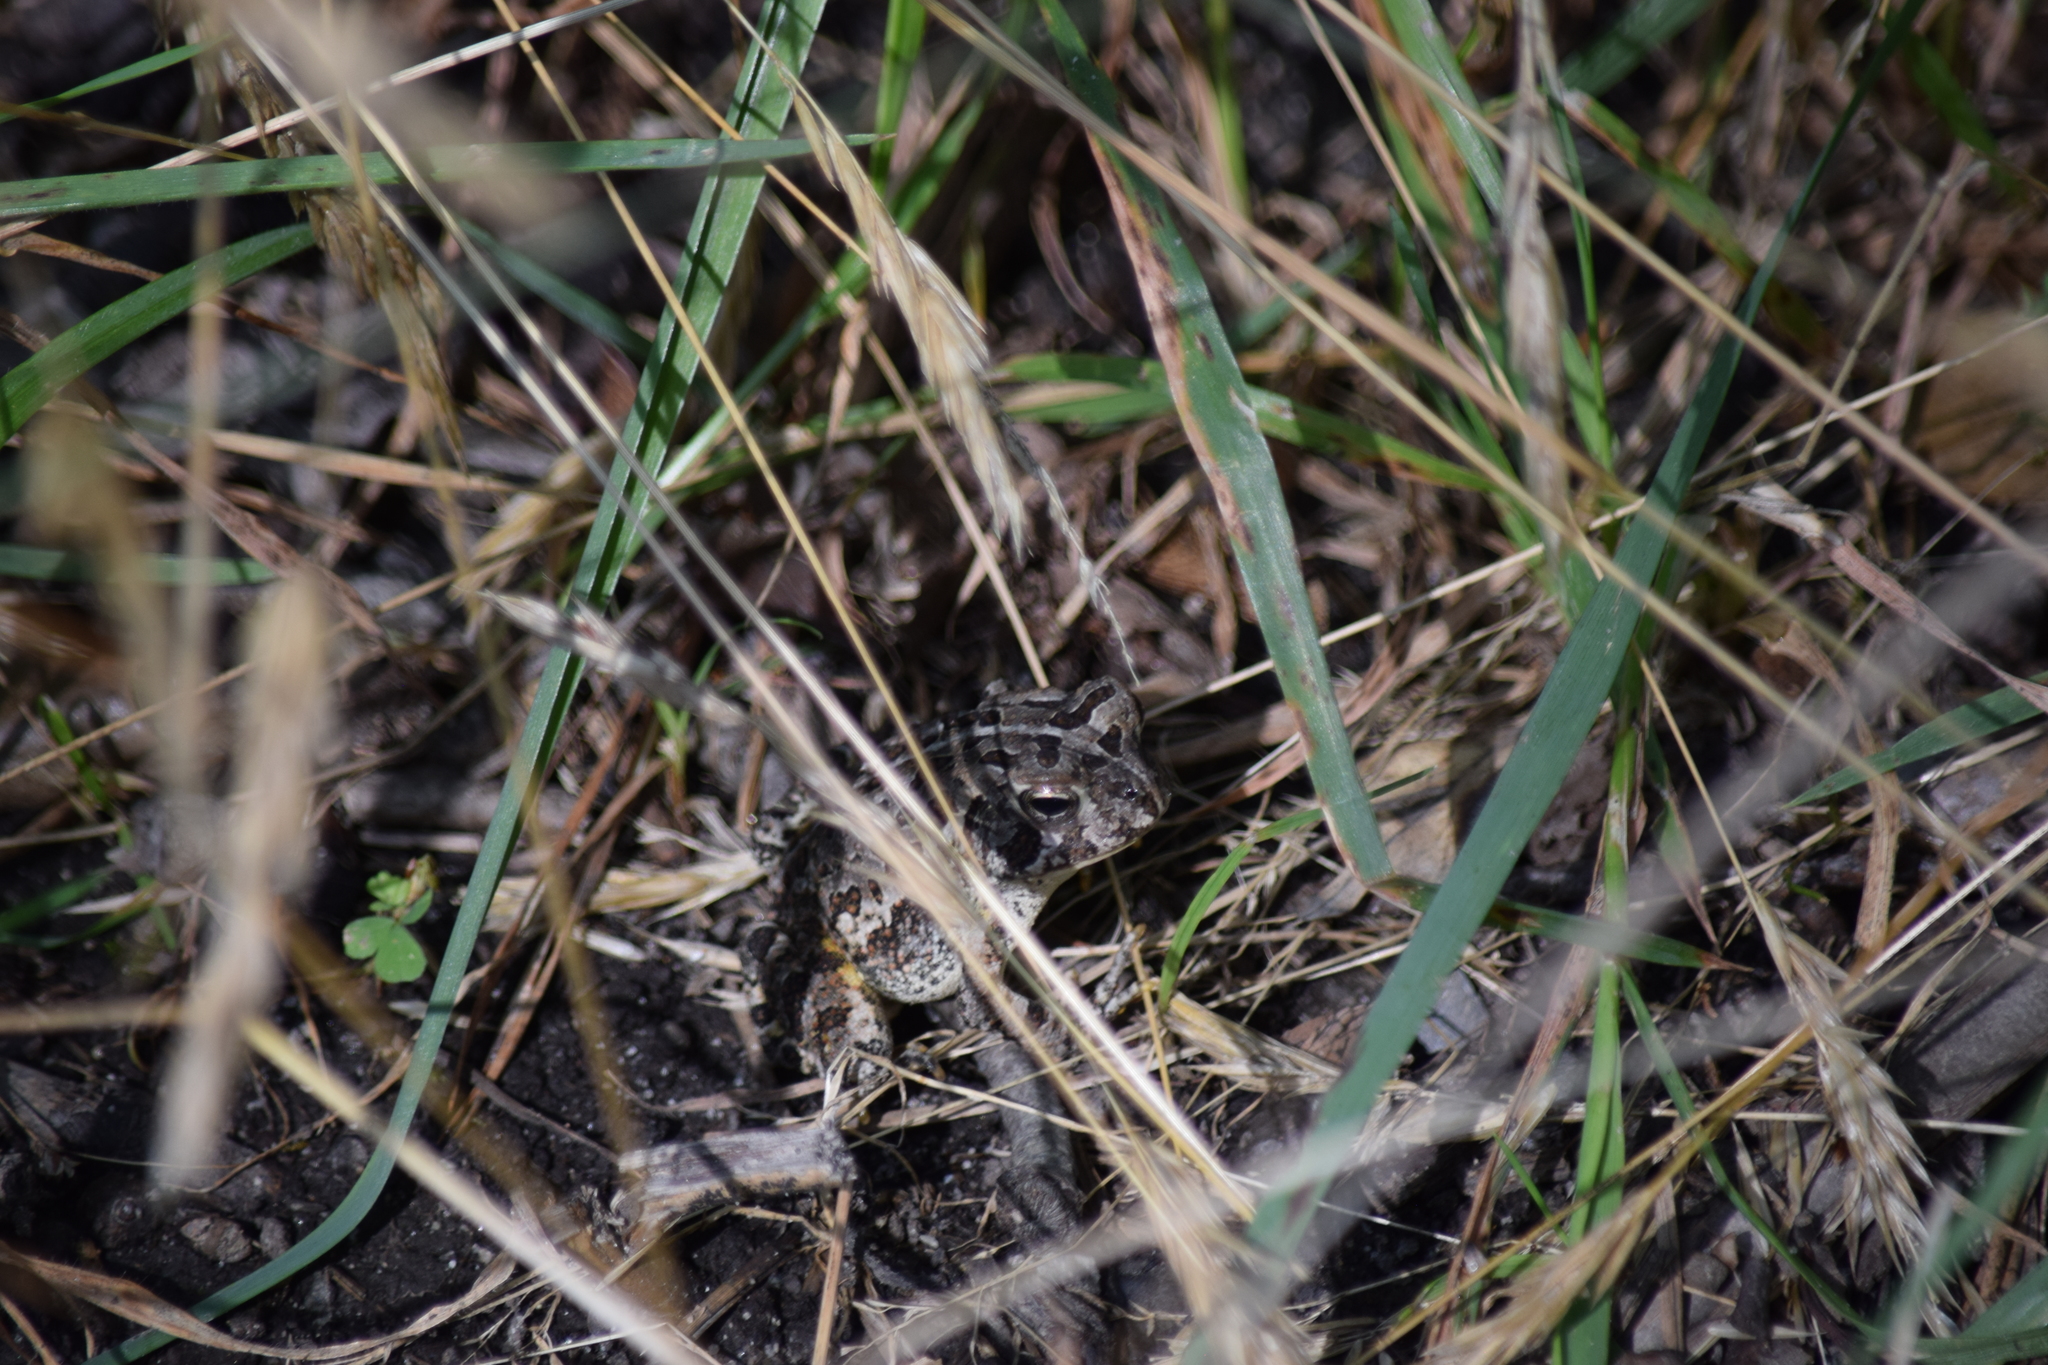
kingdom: Animalia
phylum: Chordata
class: Amphibia
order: Anura
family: Bufonidae
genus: Anaxyrus
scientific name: Anaxyrus fowleri
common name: Fowler's toad
